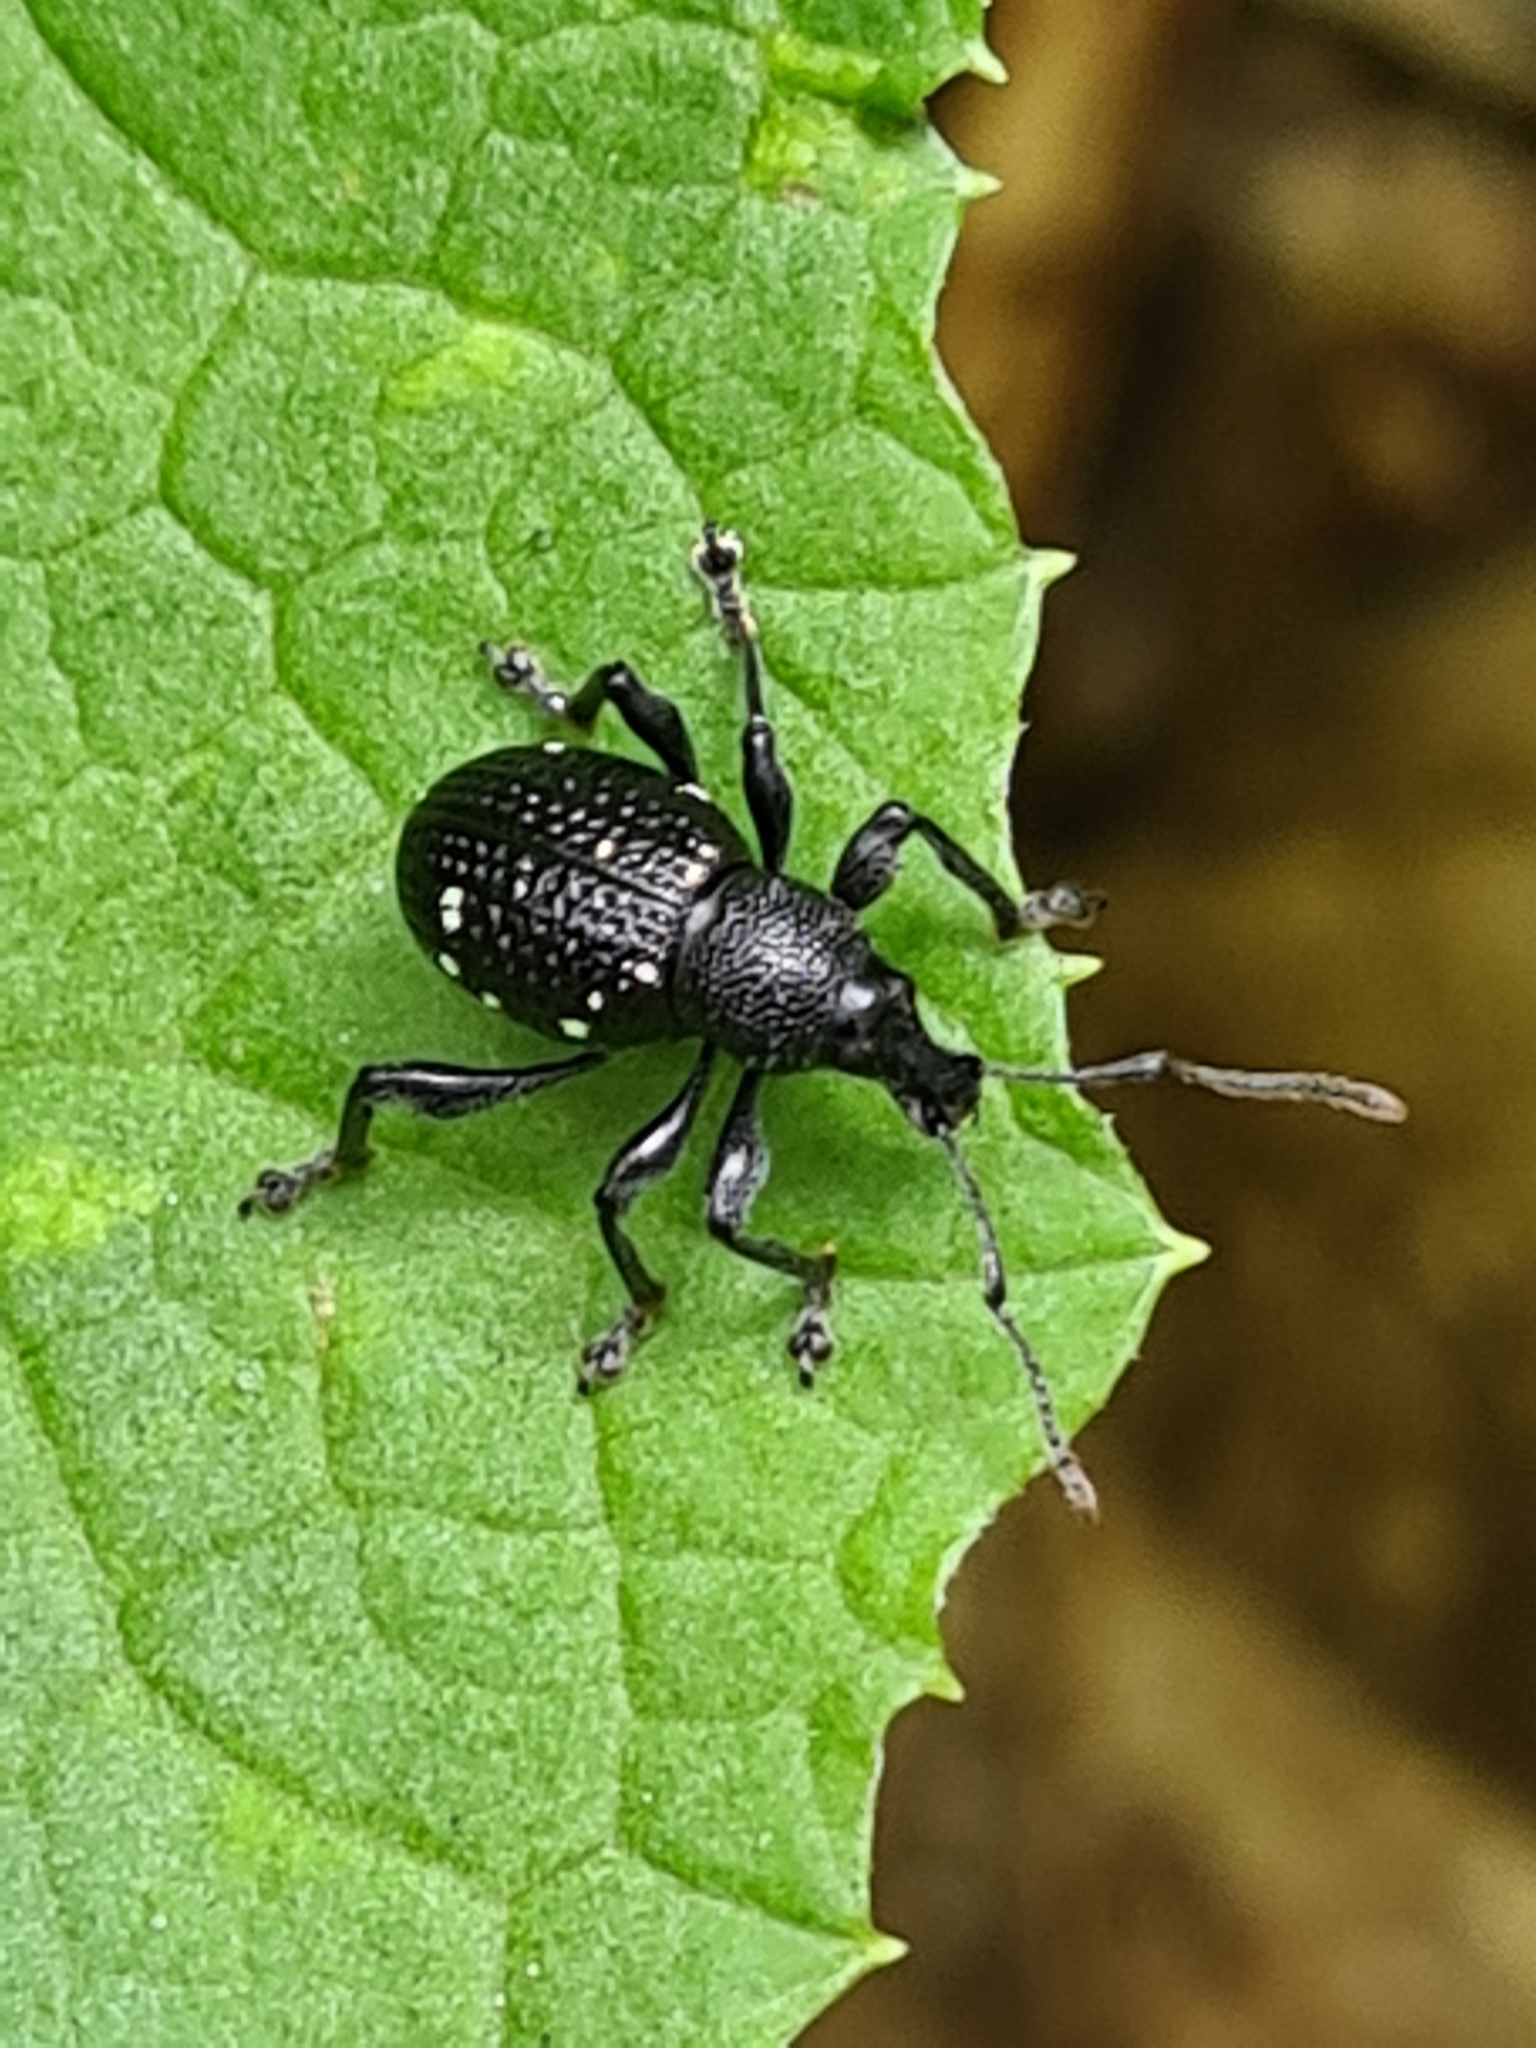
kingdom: Animalia
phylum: Arthropoda
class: Insecta
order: Coleoptera
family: Curculionidae
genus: Otiorhynchus
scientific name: Otiorhynchus gemmatus
